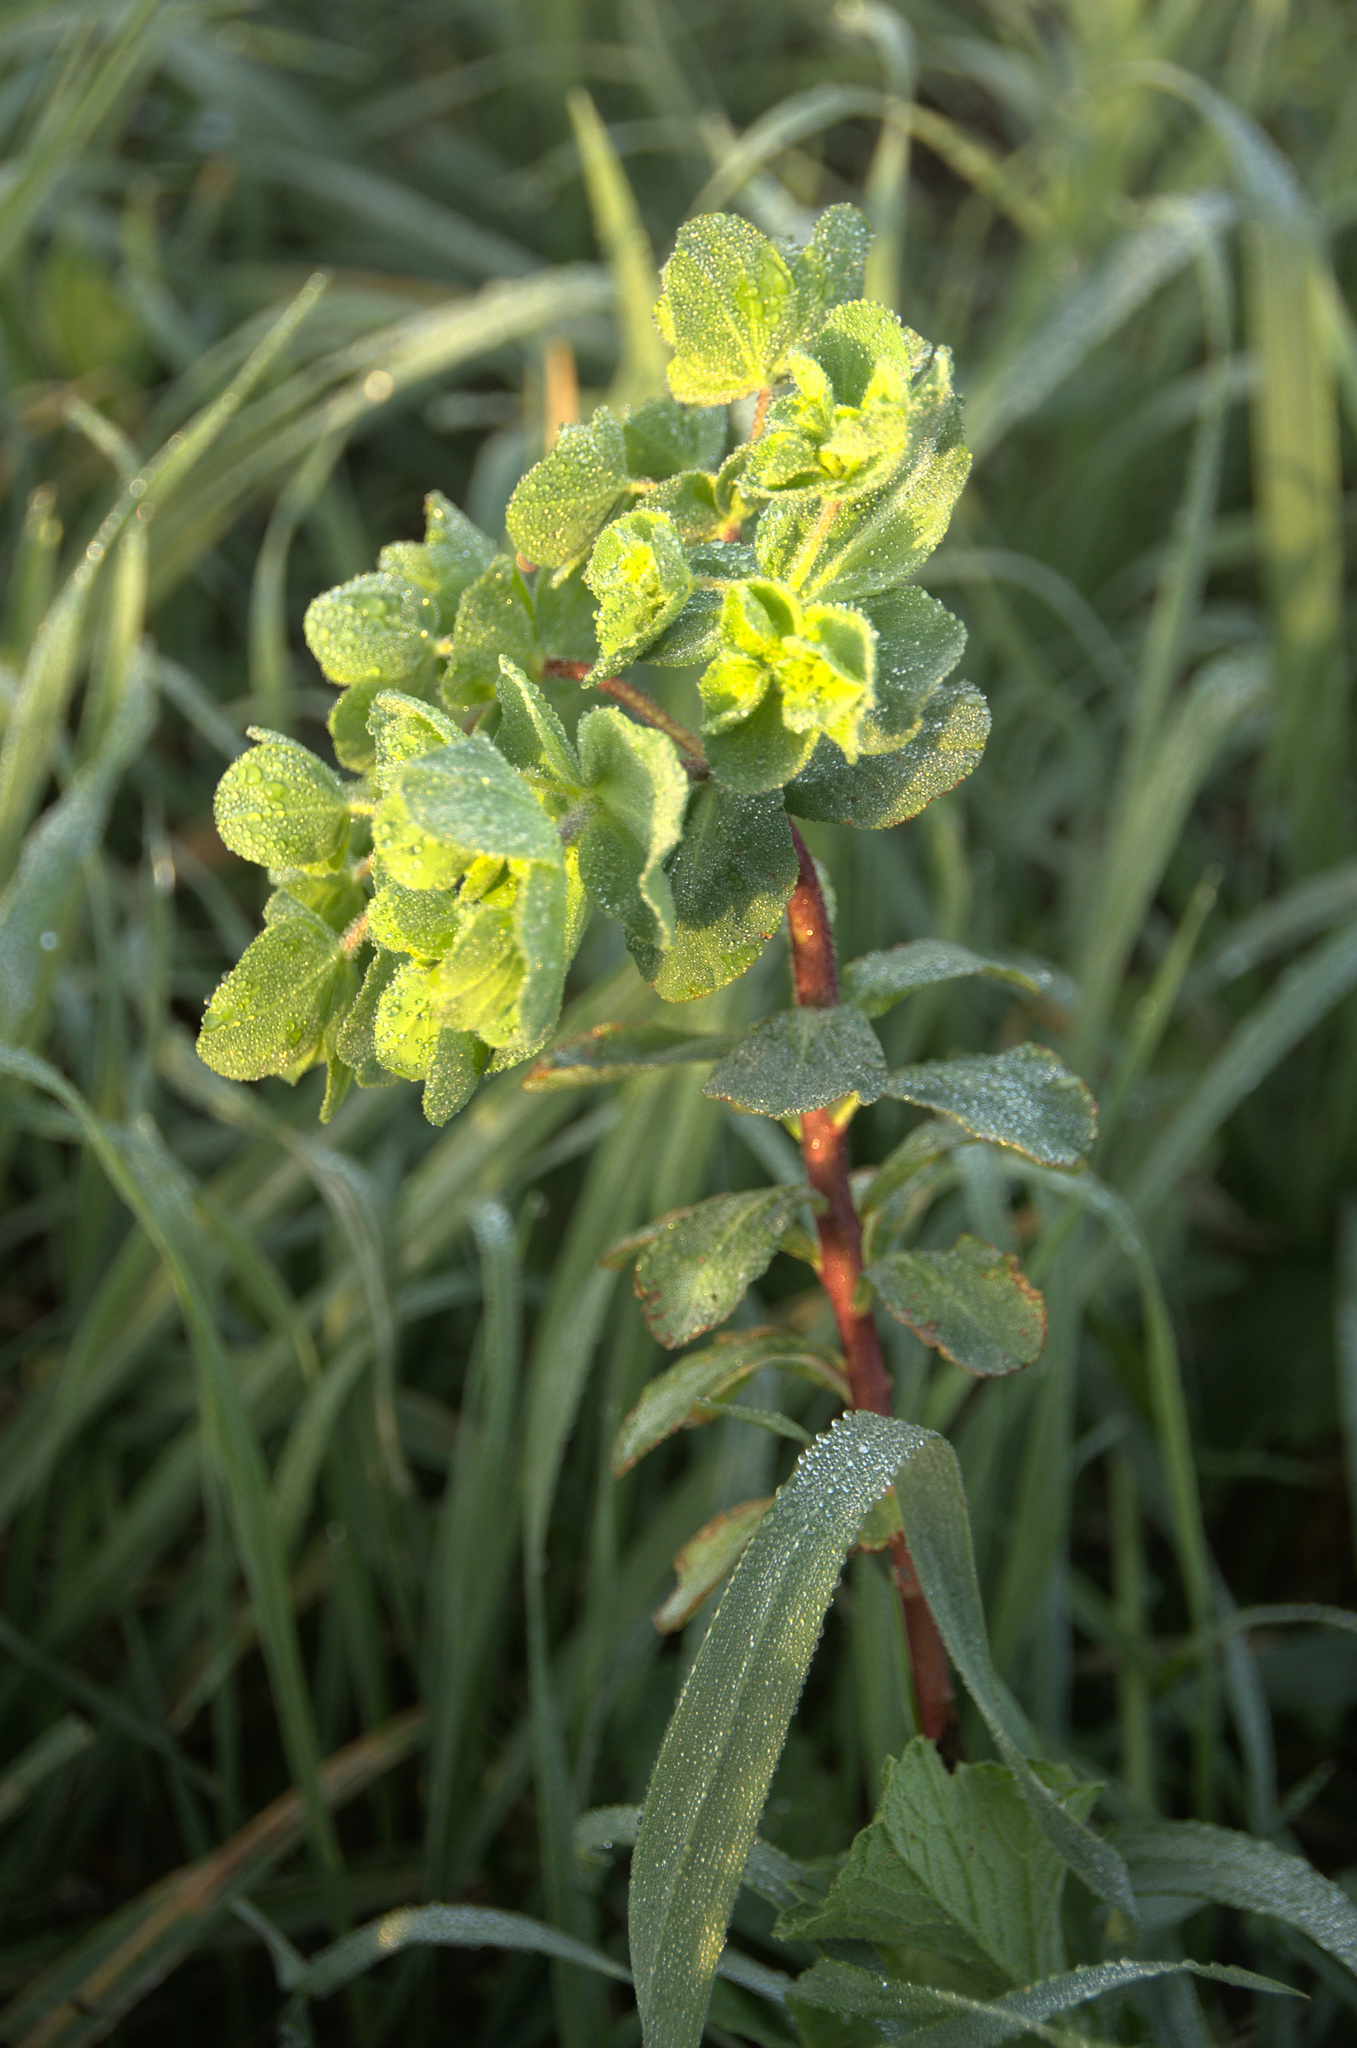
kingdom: Plantae
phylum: Tracheophyta
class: Magnoliopsida
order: Malpighiales
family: Euphorbiaceae
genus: Euphorbia
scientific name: Euphorbia helioscopia
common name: Sun spurge
